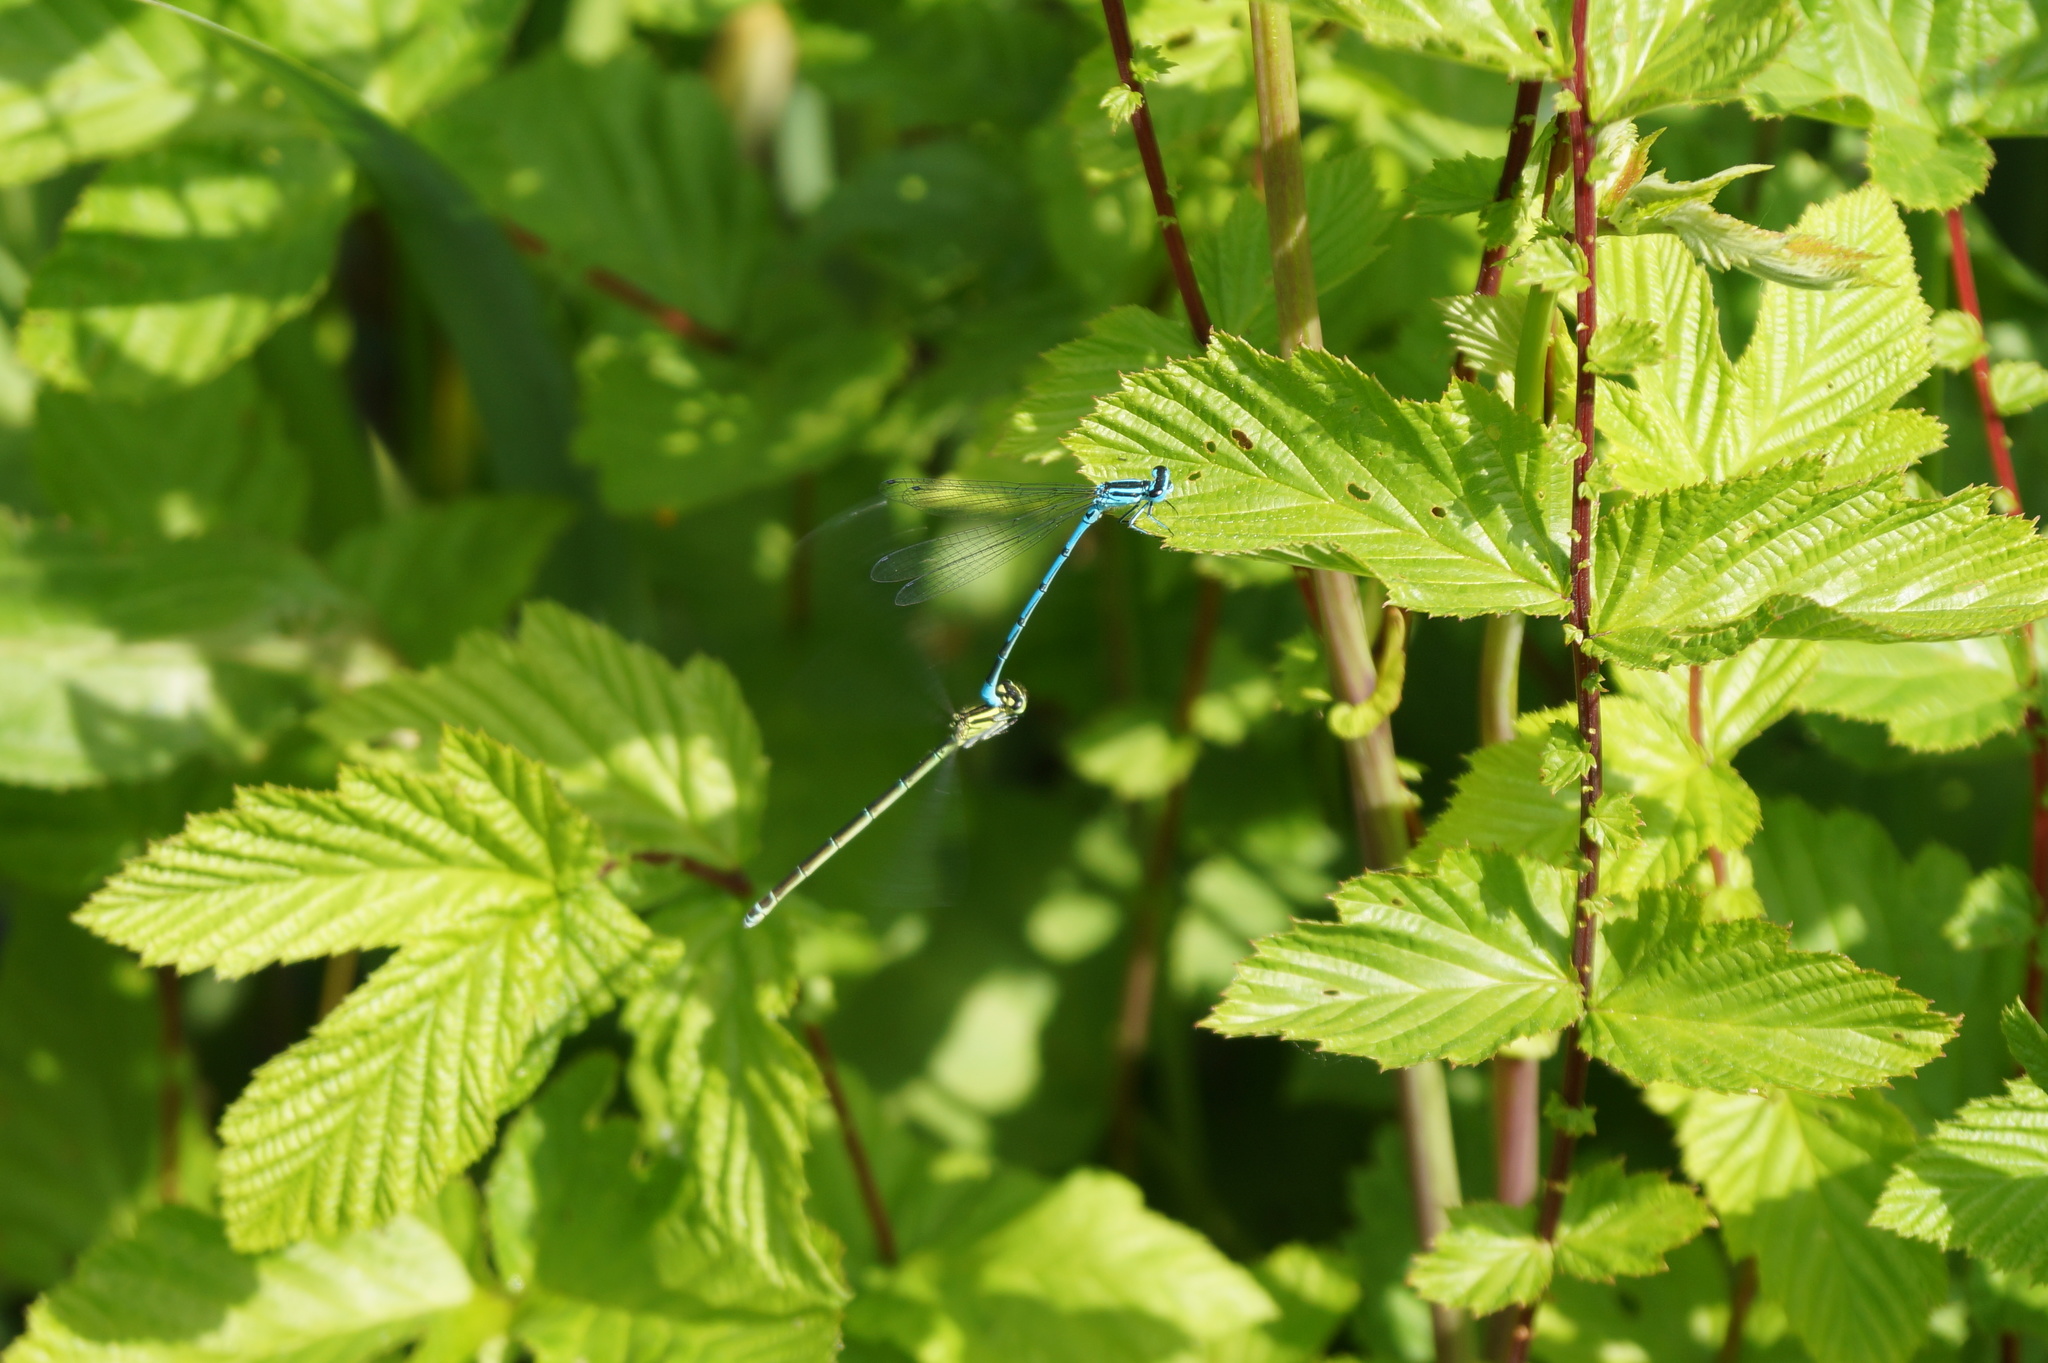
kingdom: Animalia
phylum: Arthropoda
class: Insecta
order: Odonata
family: Coenagrionidae
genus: Coenagrion
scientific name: Coenagrion puella
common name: Azure damselfly
